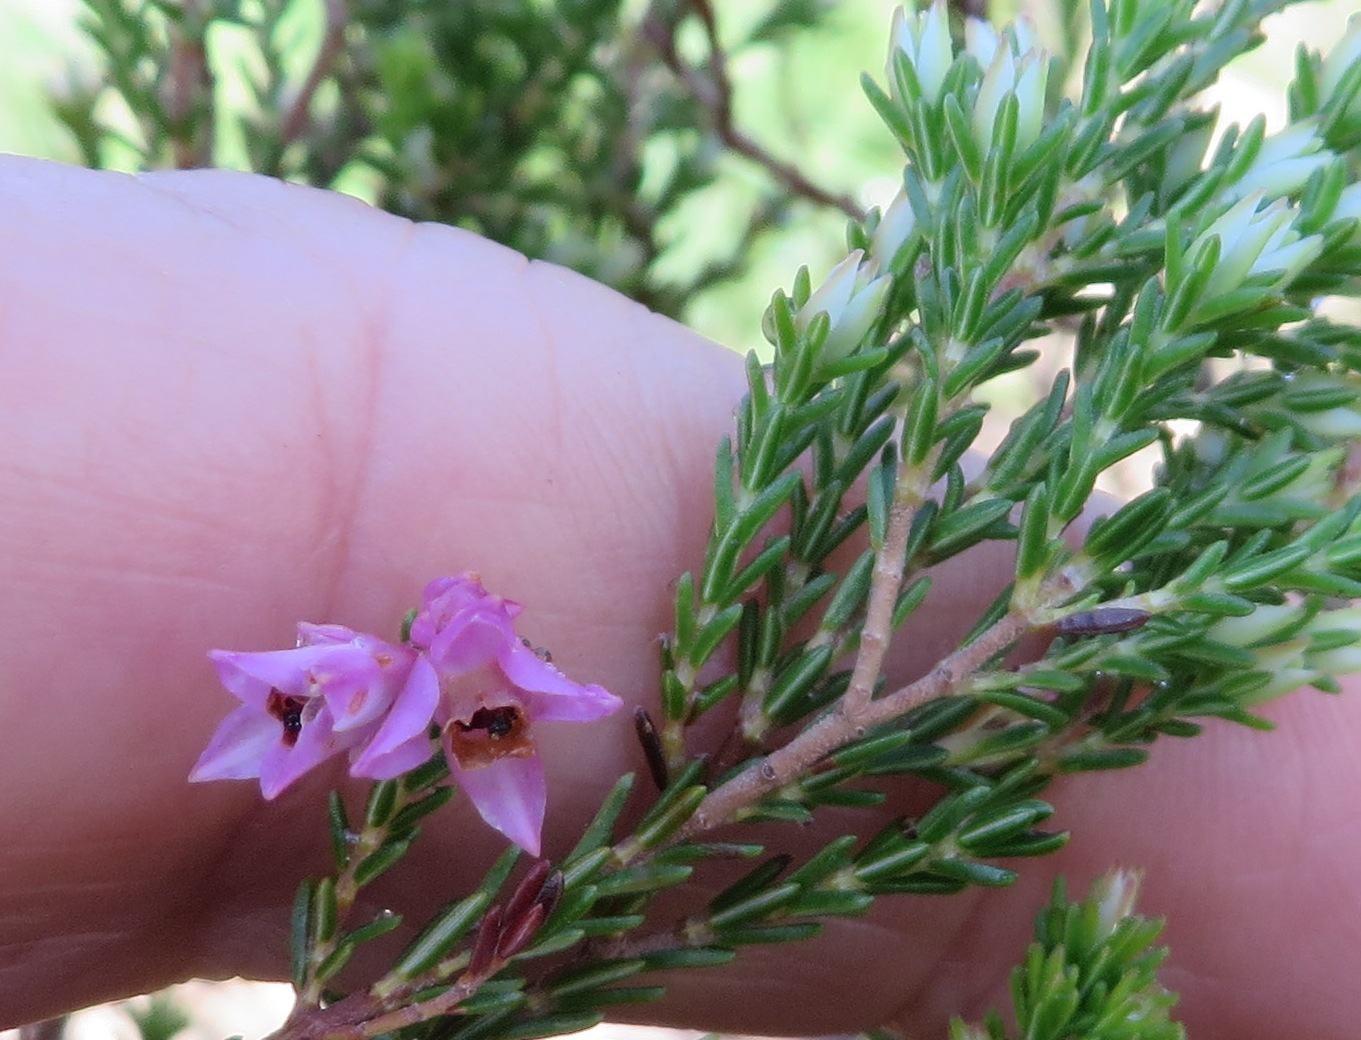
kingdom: Plantae
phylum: Tracheophyta
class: Magnoliopsida
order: Ericales
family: Ericaceae
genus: Erica
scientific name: Erica plumigera
